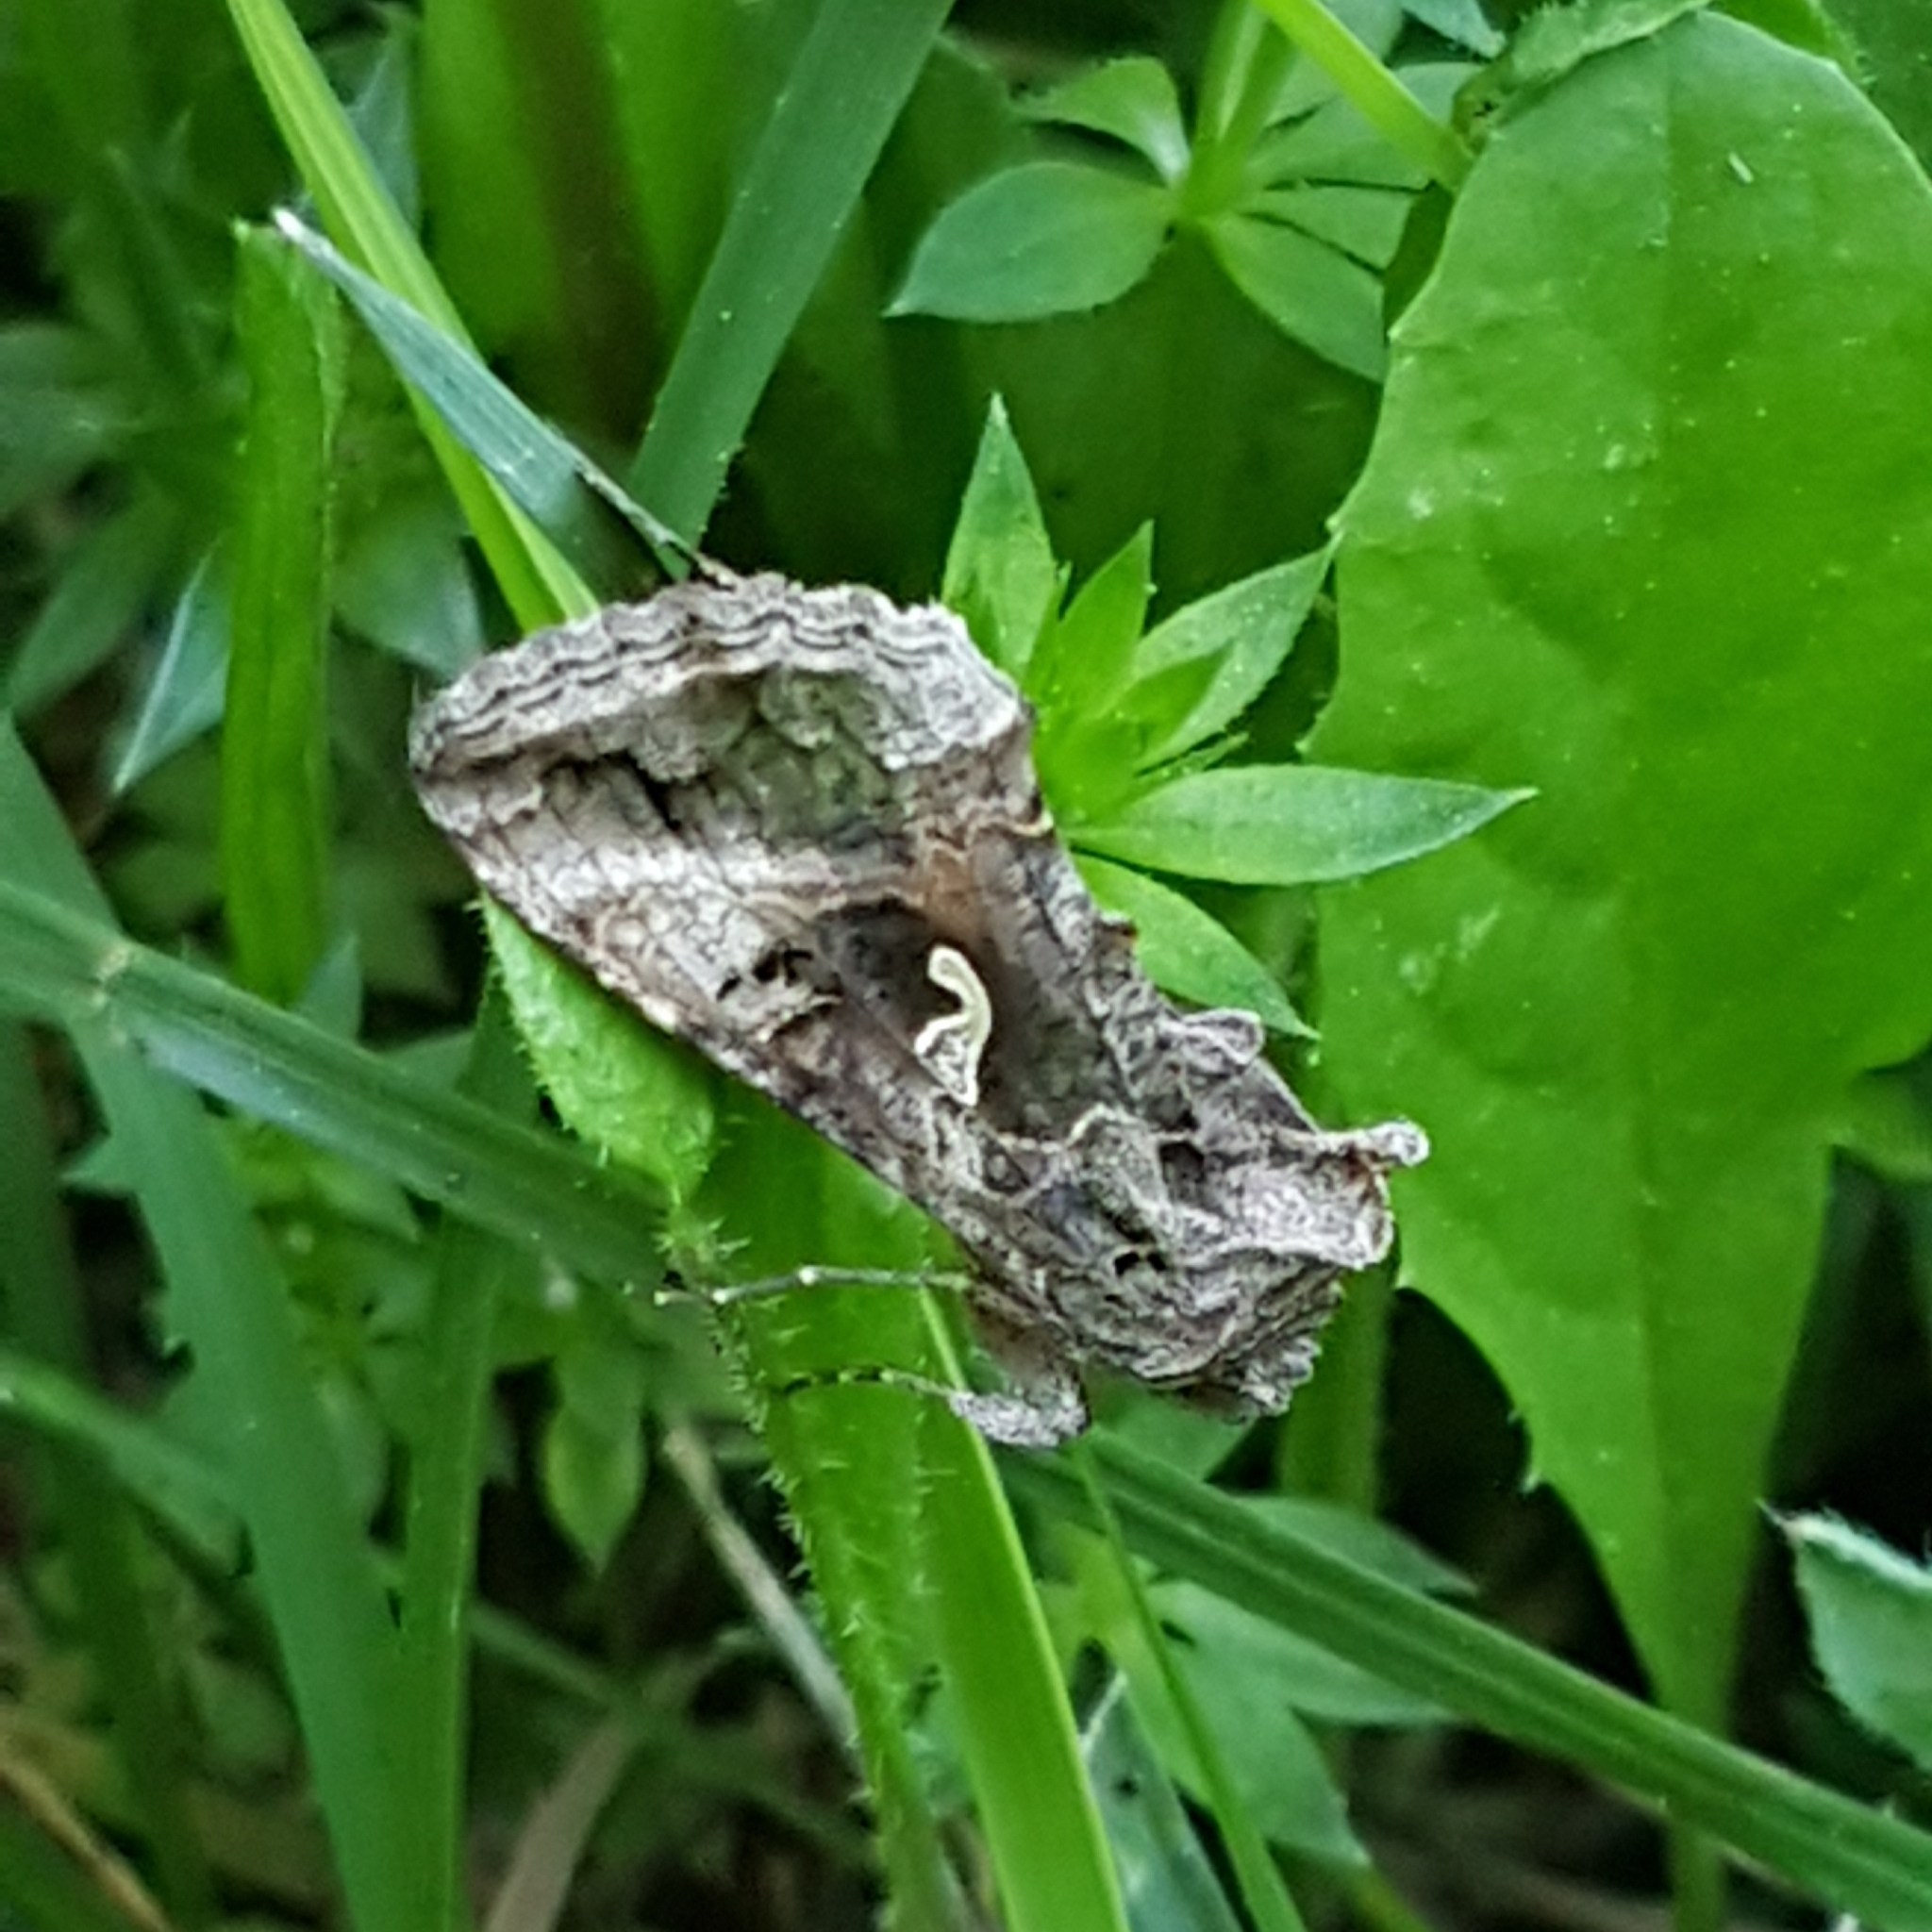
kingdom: Animalia
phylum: Arthropoda
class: Insecta
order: Lepidoptera
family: Noctuidae
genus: Autographa
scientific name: Autographa gamma
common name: Silver y
